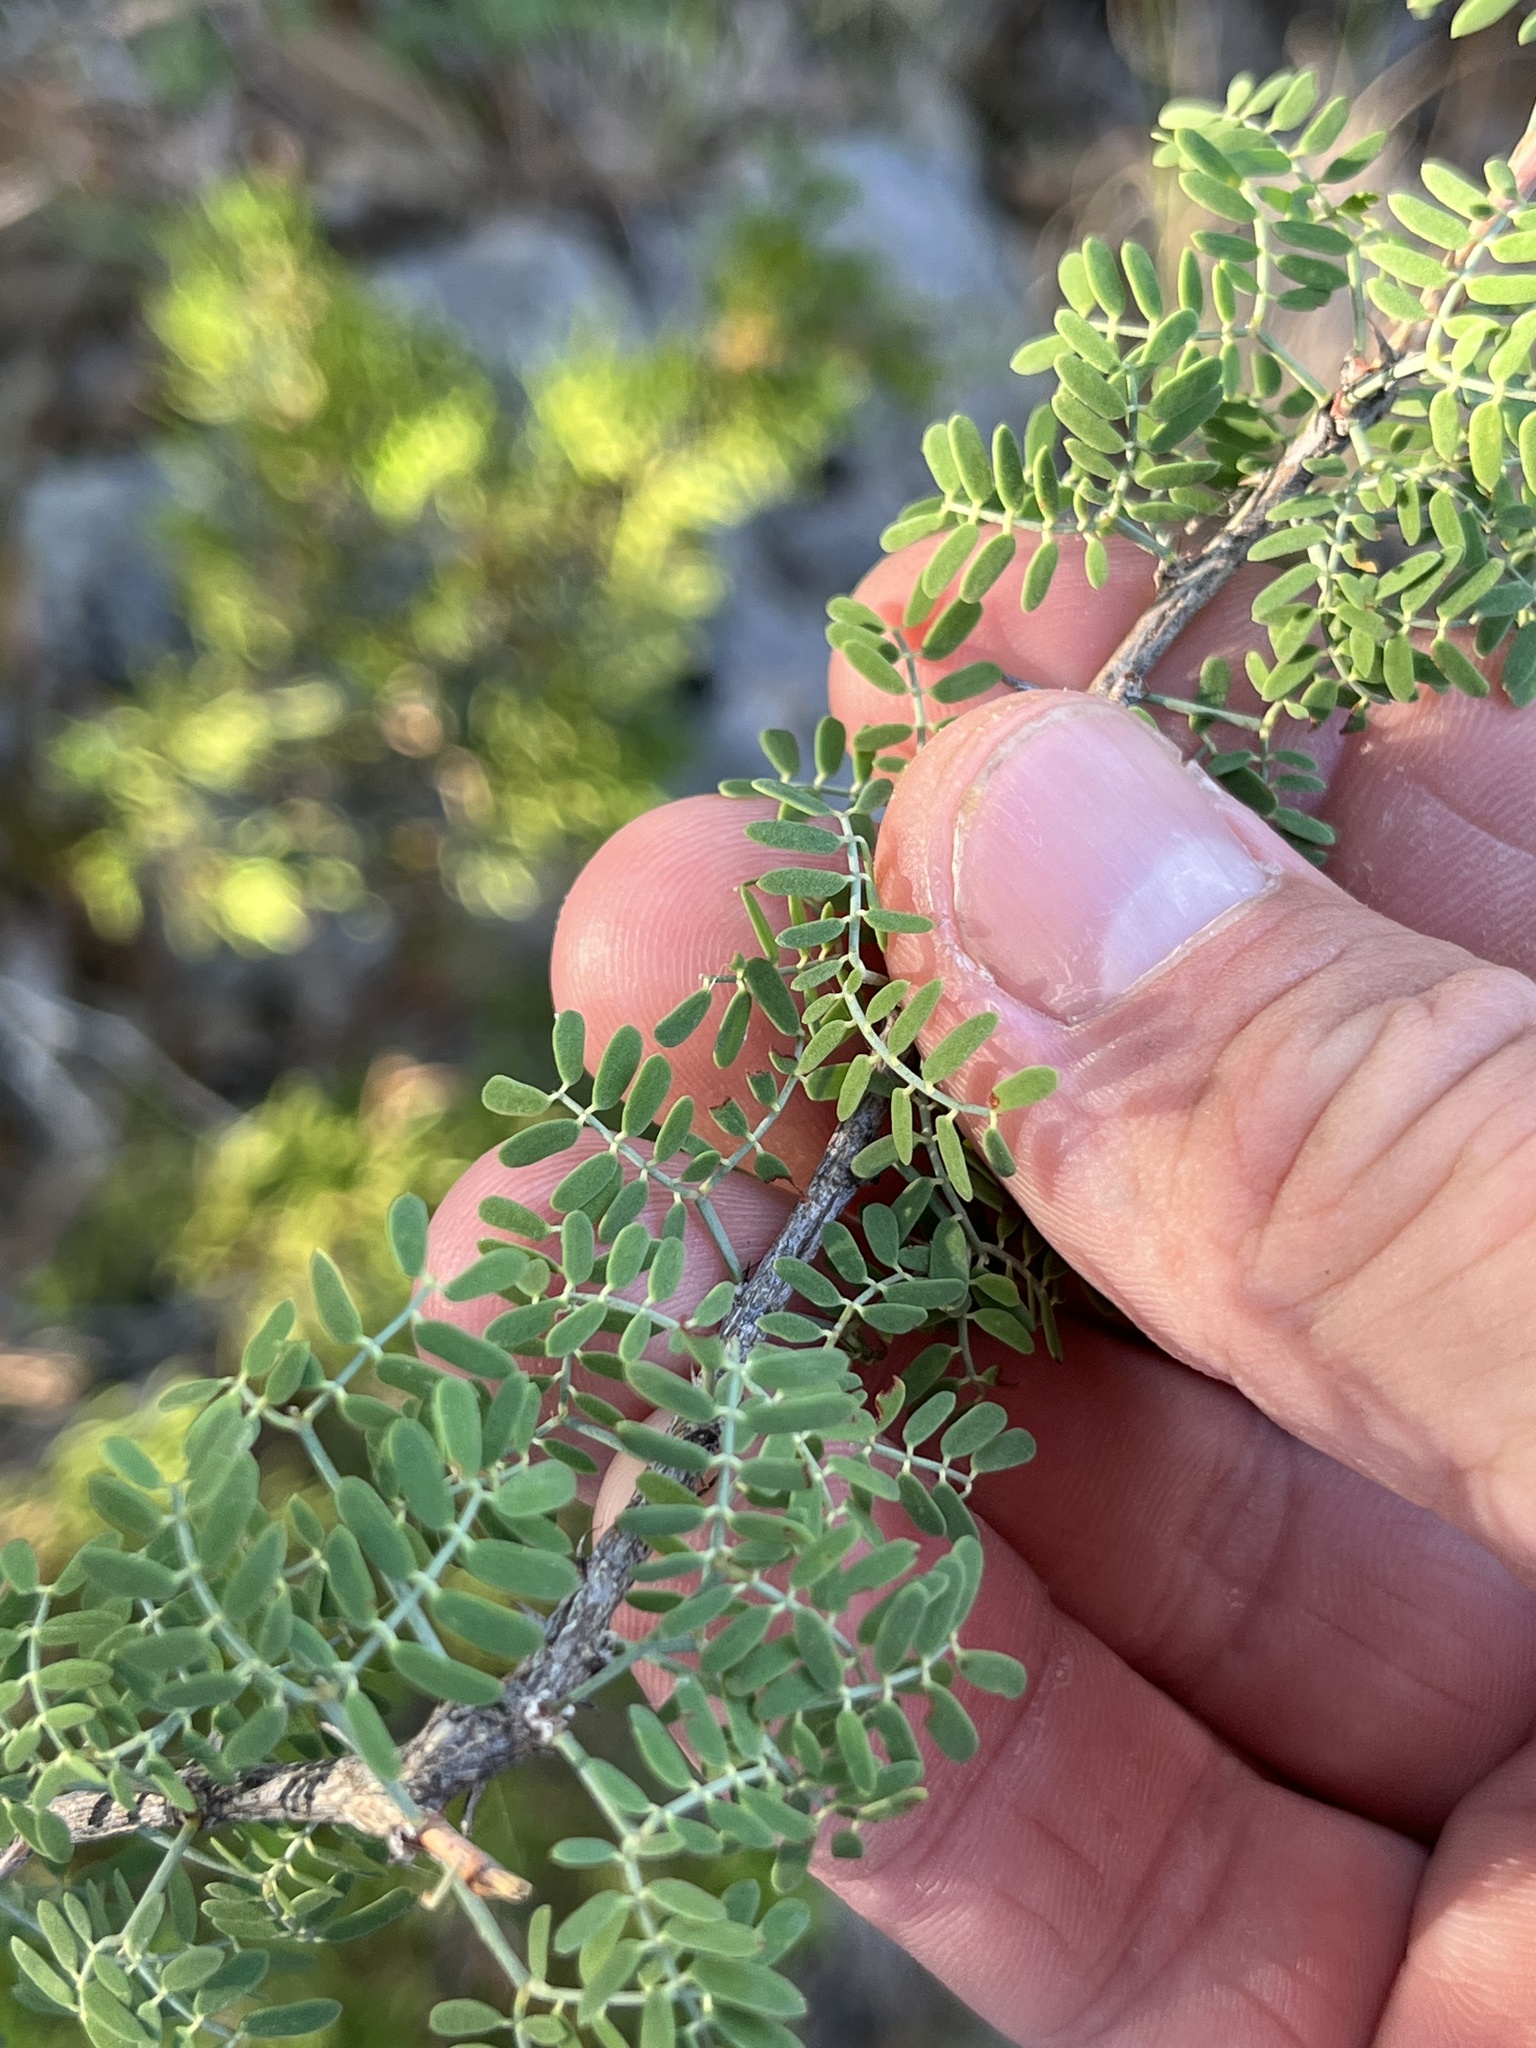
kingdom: Plantae
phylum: Tracheophyta
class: Magnoliopsida
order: Fabales
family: Fabaceae
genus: Mimosa
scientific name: Mimosa borealis
